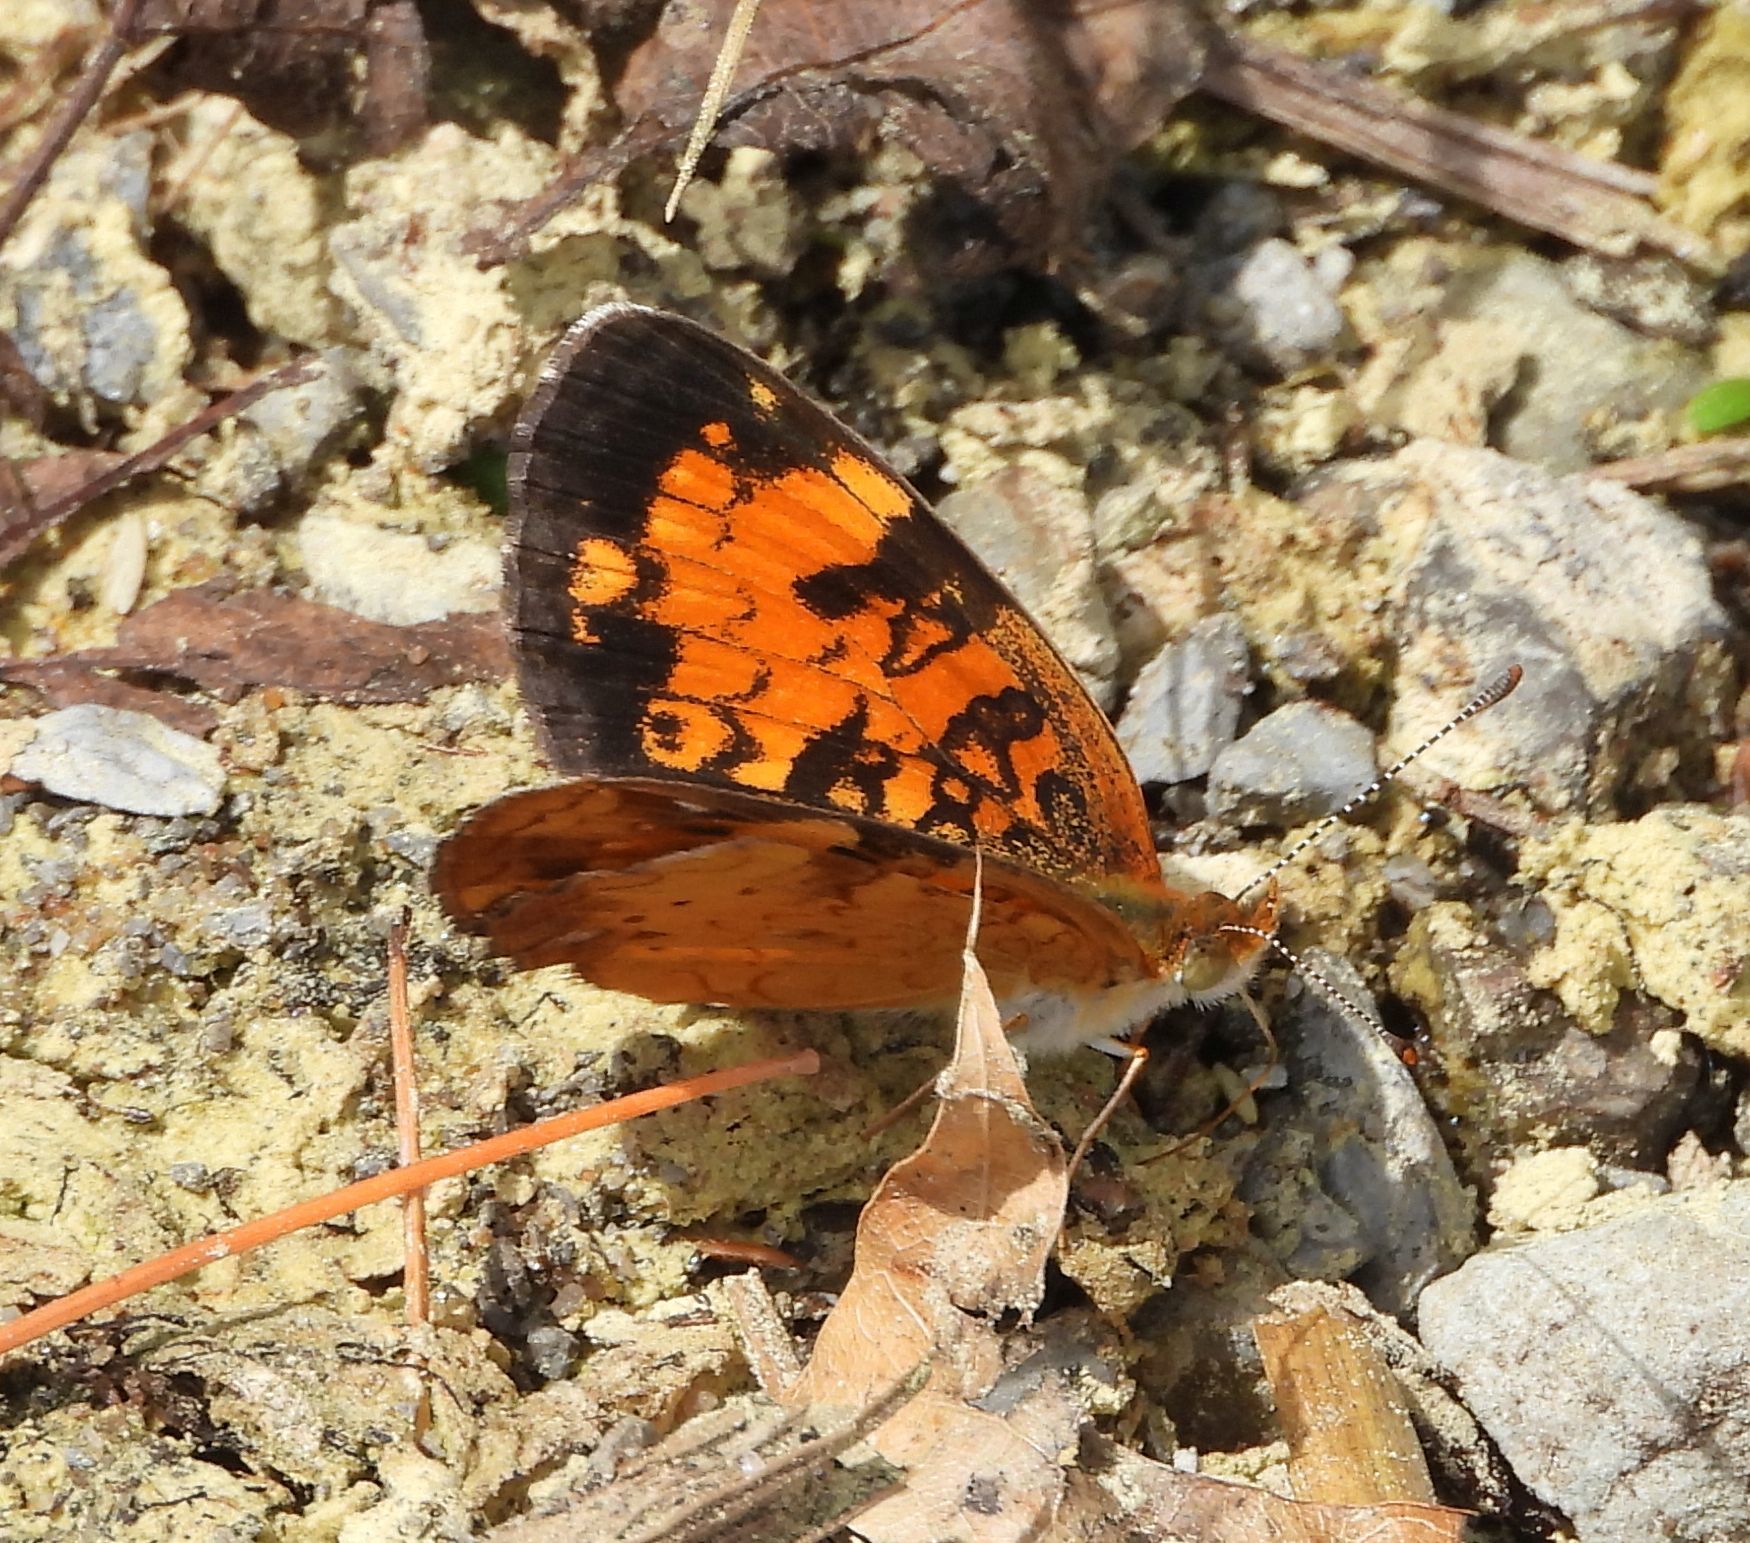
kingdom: Animalia
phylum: Arthropoda
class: Insecta
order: Lepidoptera
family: Nymphalidae
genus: Phyciodes
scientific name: Phyciodes tharos
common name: Pearl crescent
